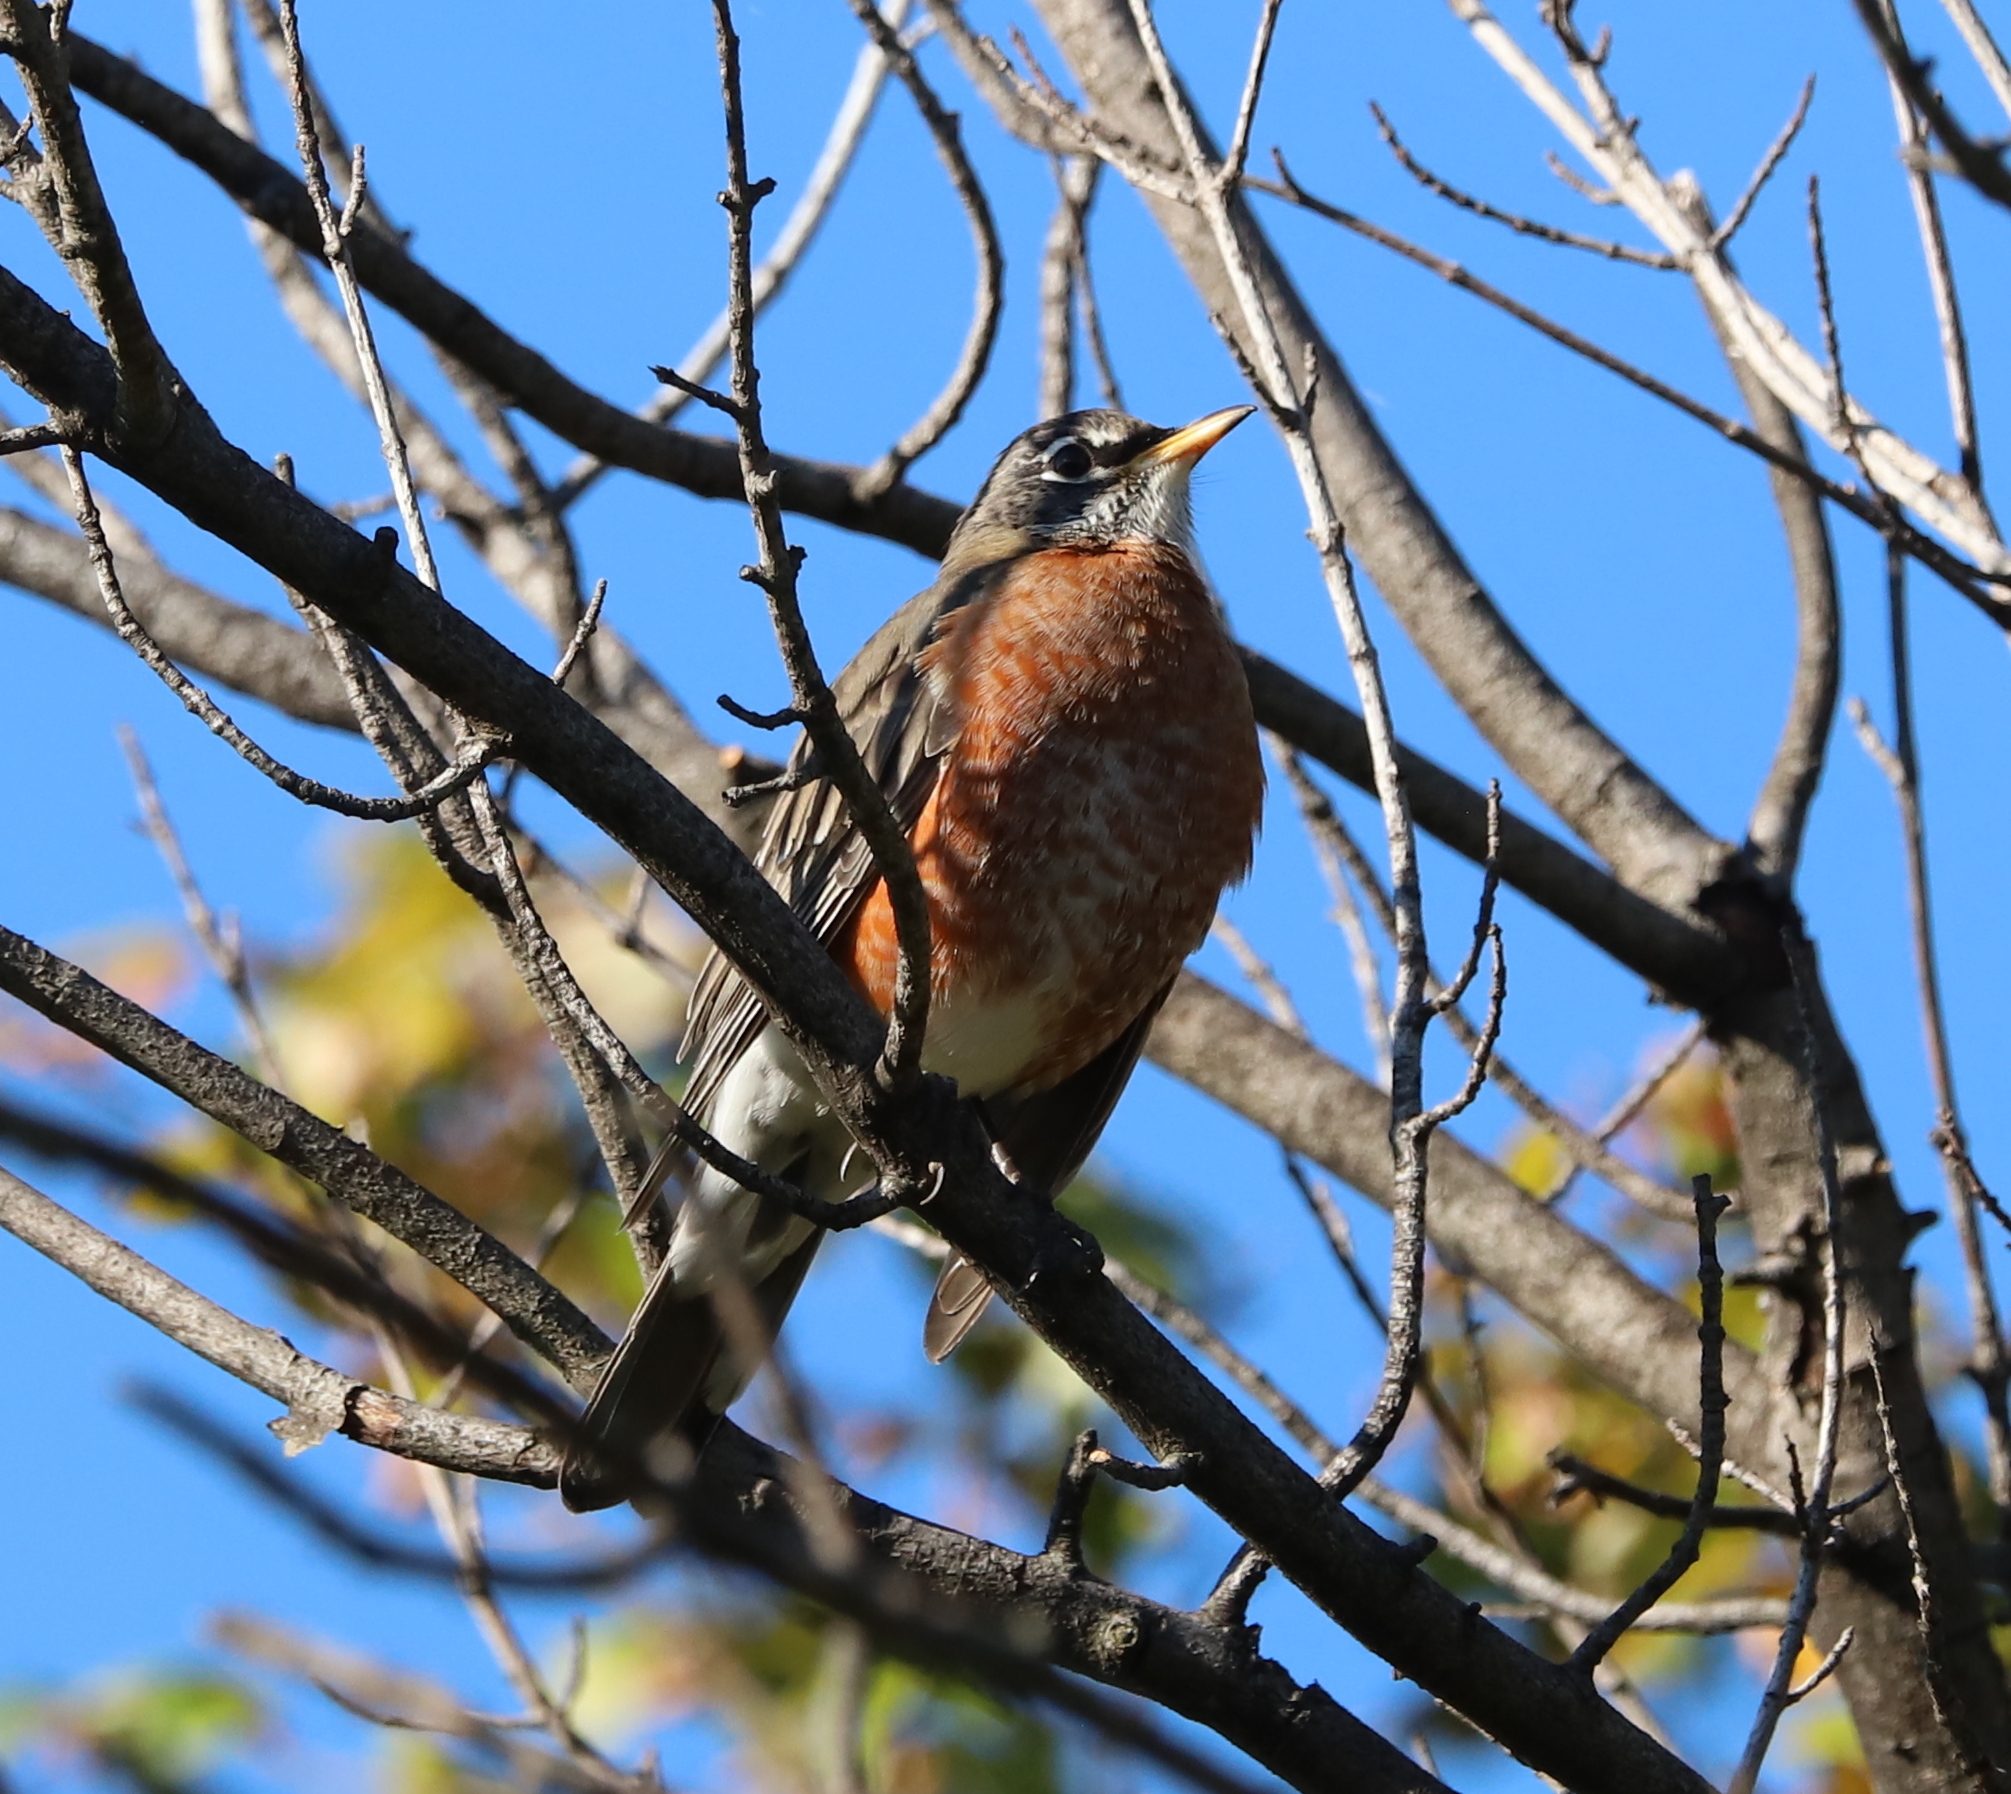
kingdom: Animalia
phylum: Chordata
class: Aves
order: Passeriformes
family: Turdidae
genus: Turdus
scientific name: Turdus migratorius
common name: American robin
